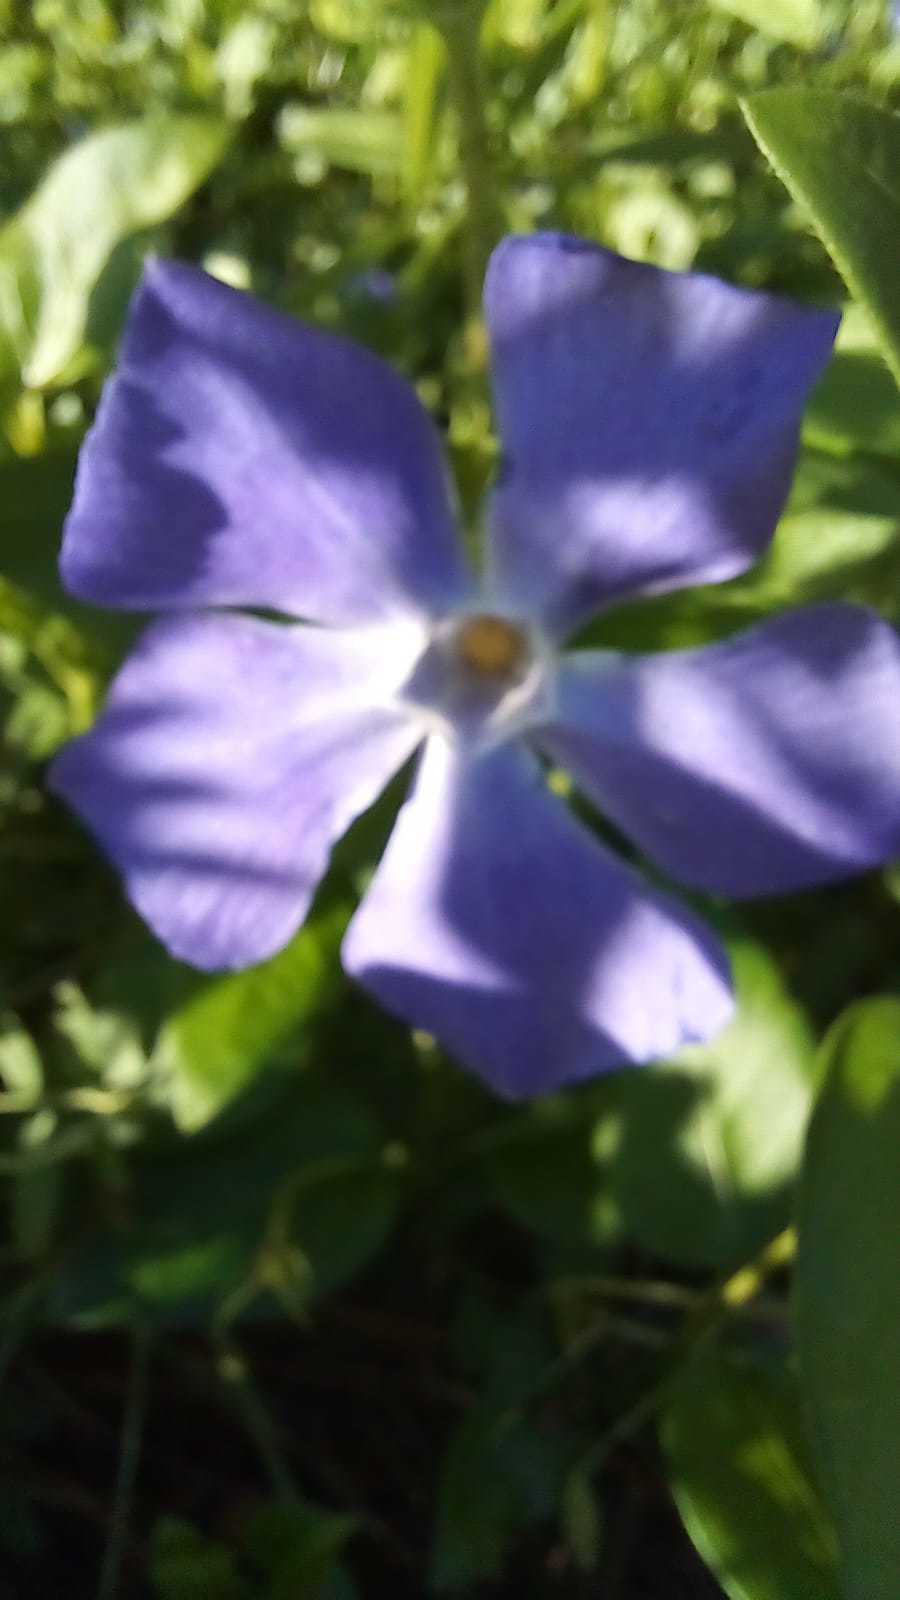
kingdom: Plantae
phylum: Tracheophyta
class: Magnoliopsida
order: Gentianales
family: Apocynaceae
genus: Vinca
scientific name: Vinca major
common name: Greater periwinkle
